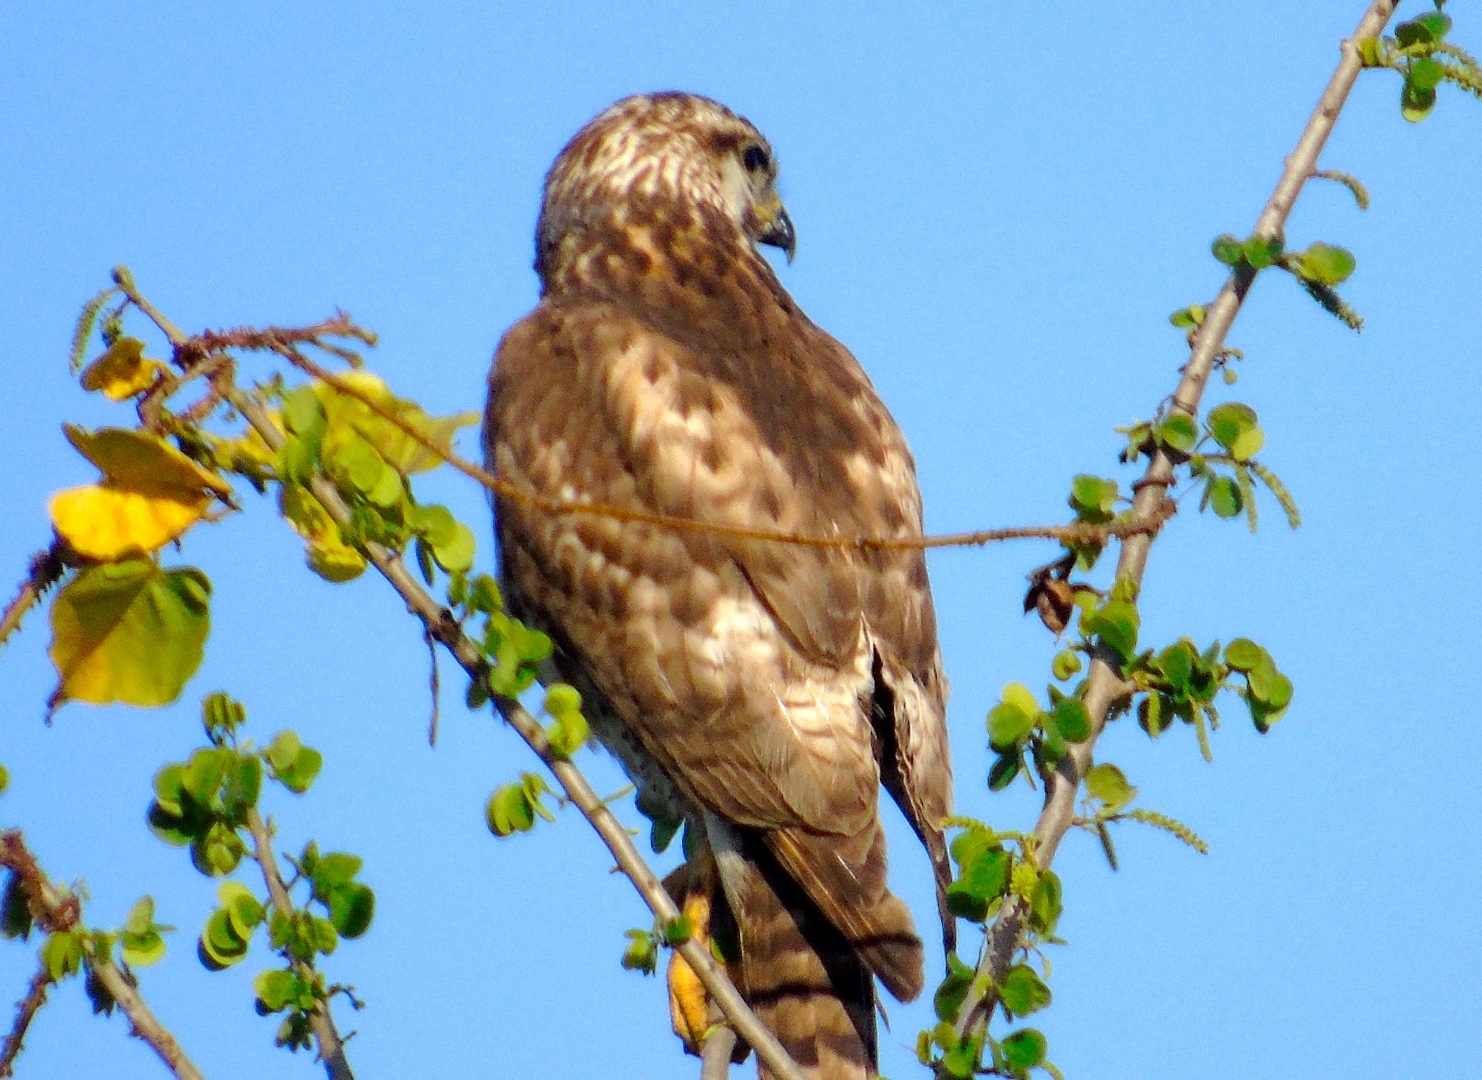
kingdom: Animalia
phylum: Chordata
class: Aves
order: Accipitriformes
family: Accipitridae
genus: Buteo
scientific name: Buteo nitidus
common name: Grey-lined hawk
